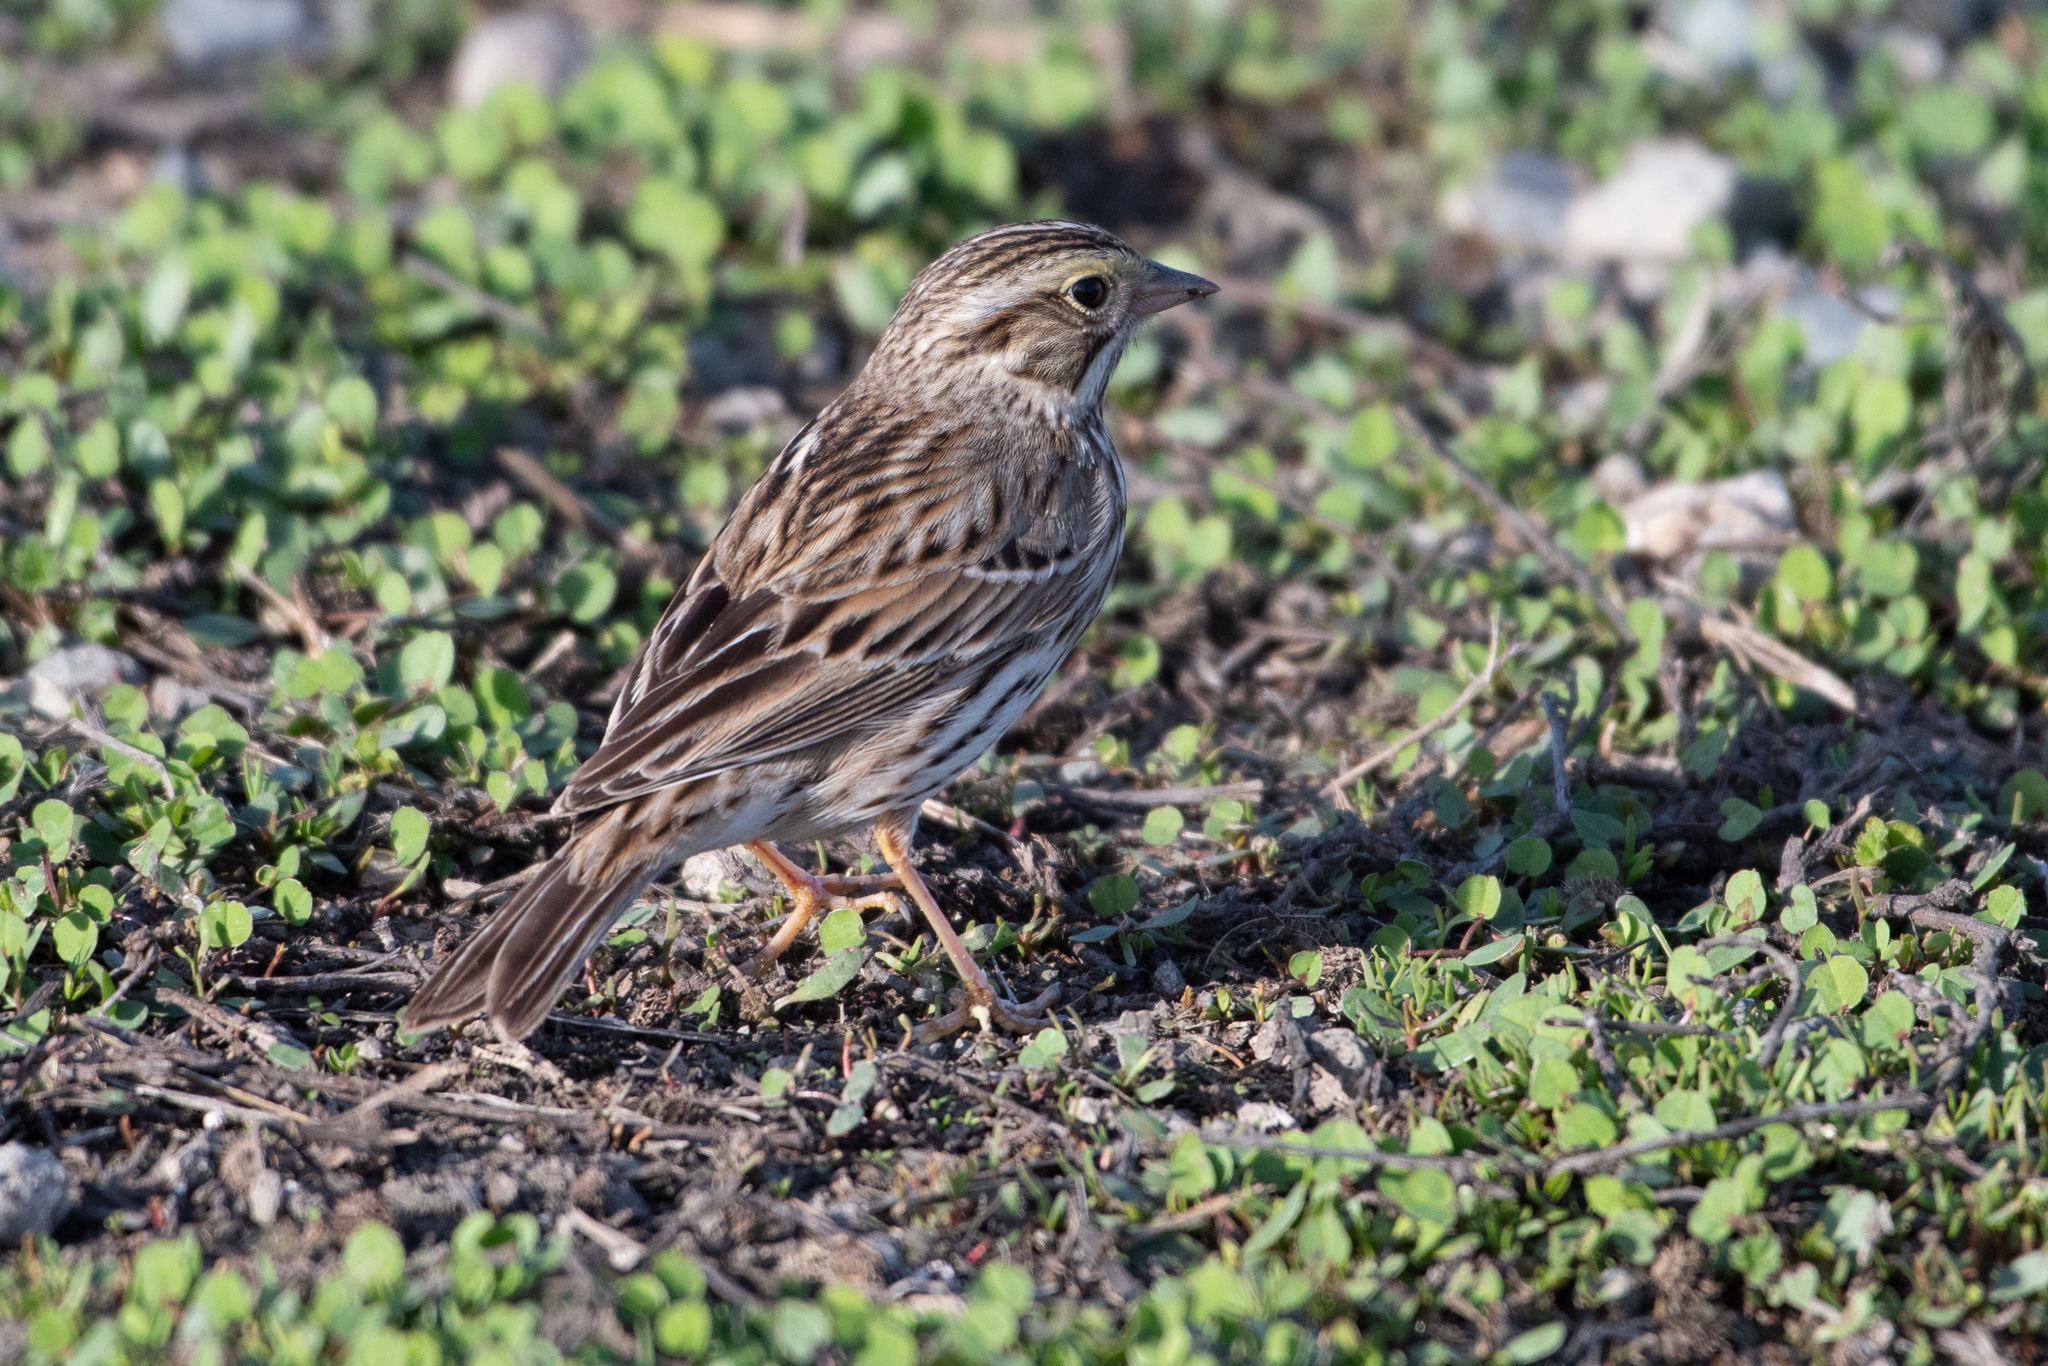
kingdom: Animalia
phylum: Chordata
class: Aves
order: Passeriformes
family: Passerellidae
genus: Passerculus
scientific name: Passerculus sandwichensis
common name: Savannah sparrow
